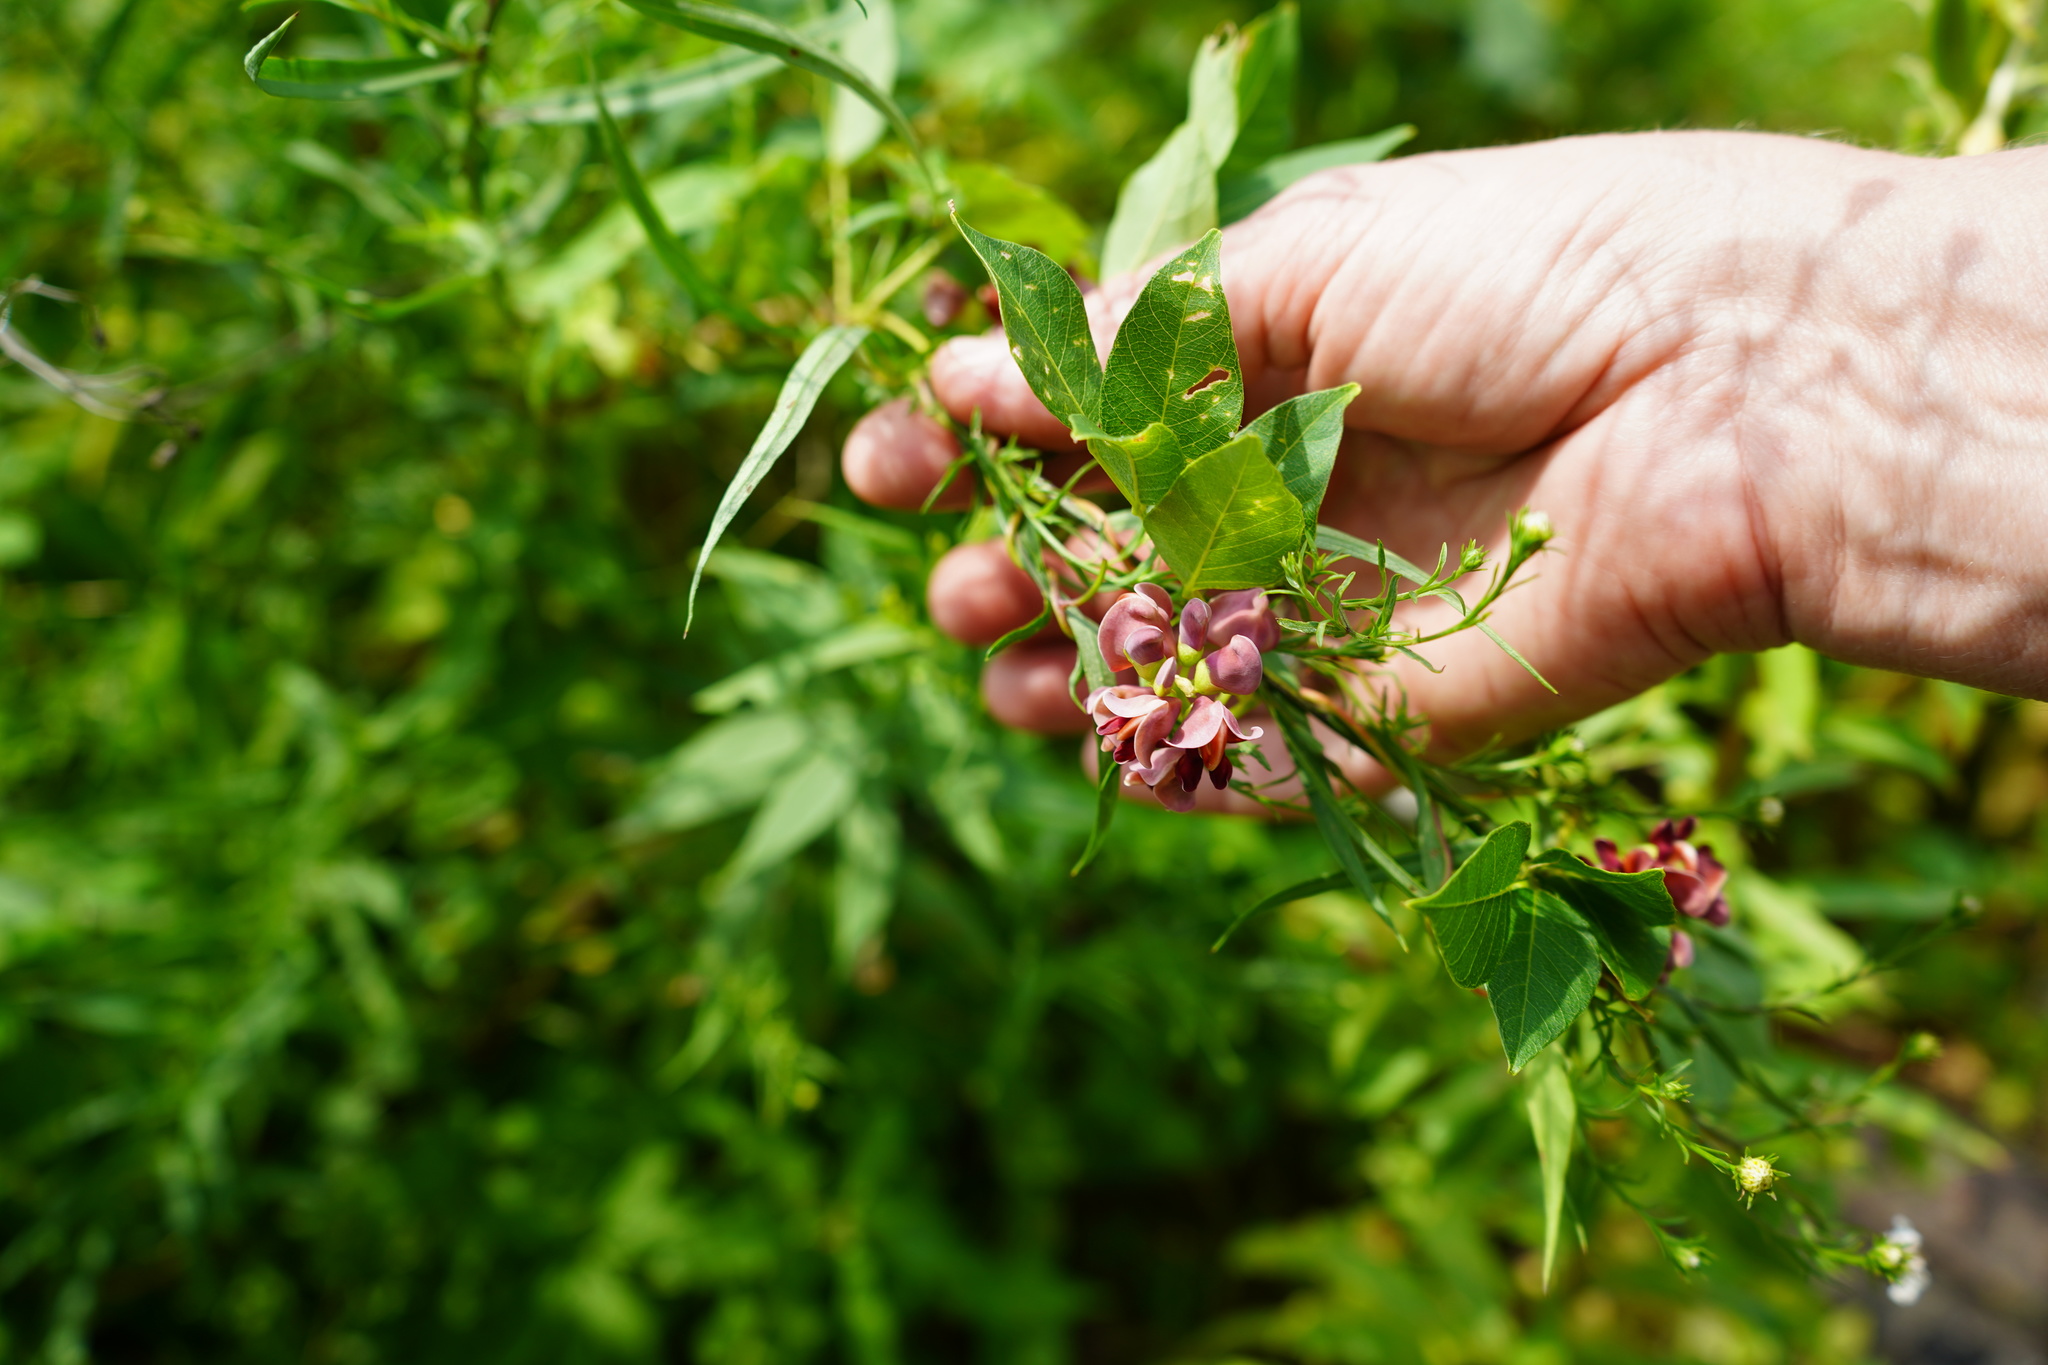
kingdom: Plantae
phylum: Tracheophyta
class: Magnoliopsida
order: Fabales
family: Fabaceae
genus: Apios
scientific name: Apios americana
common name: American potato-bean
